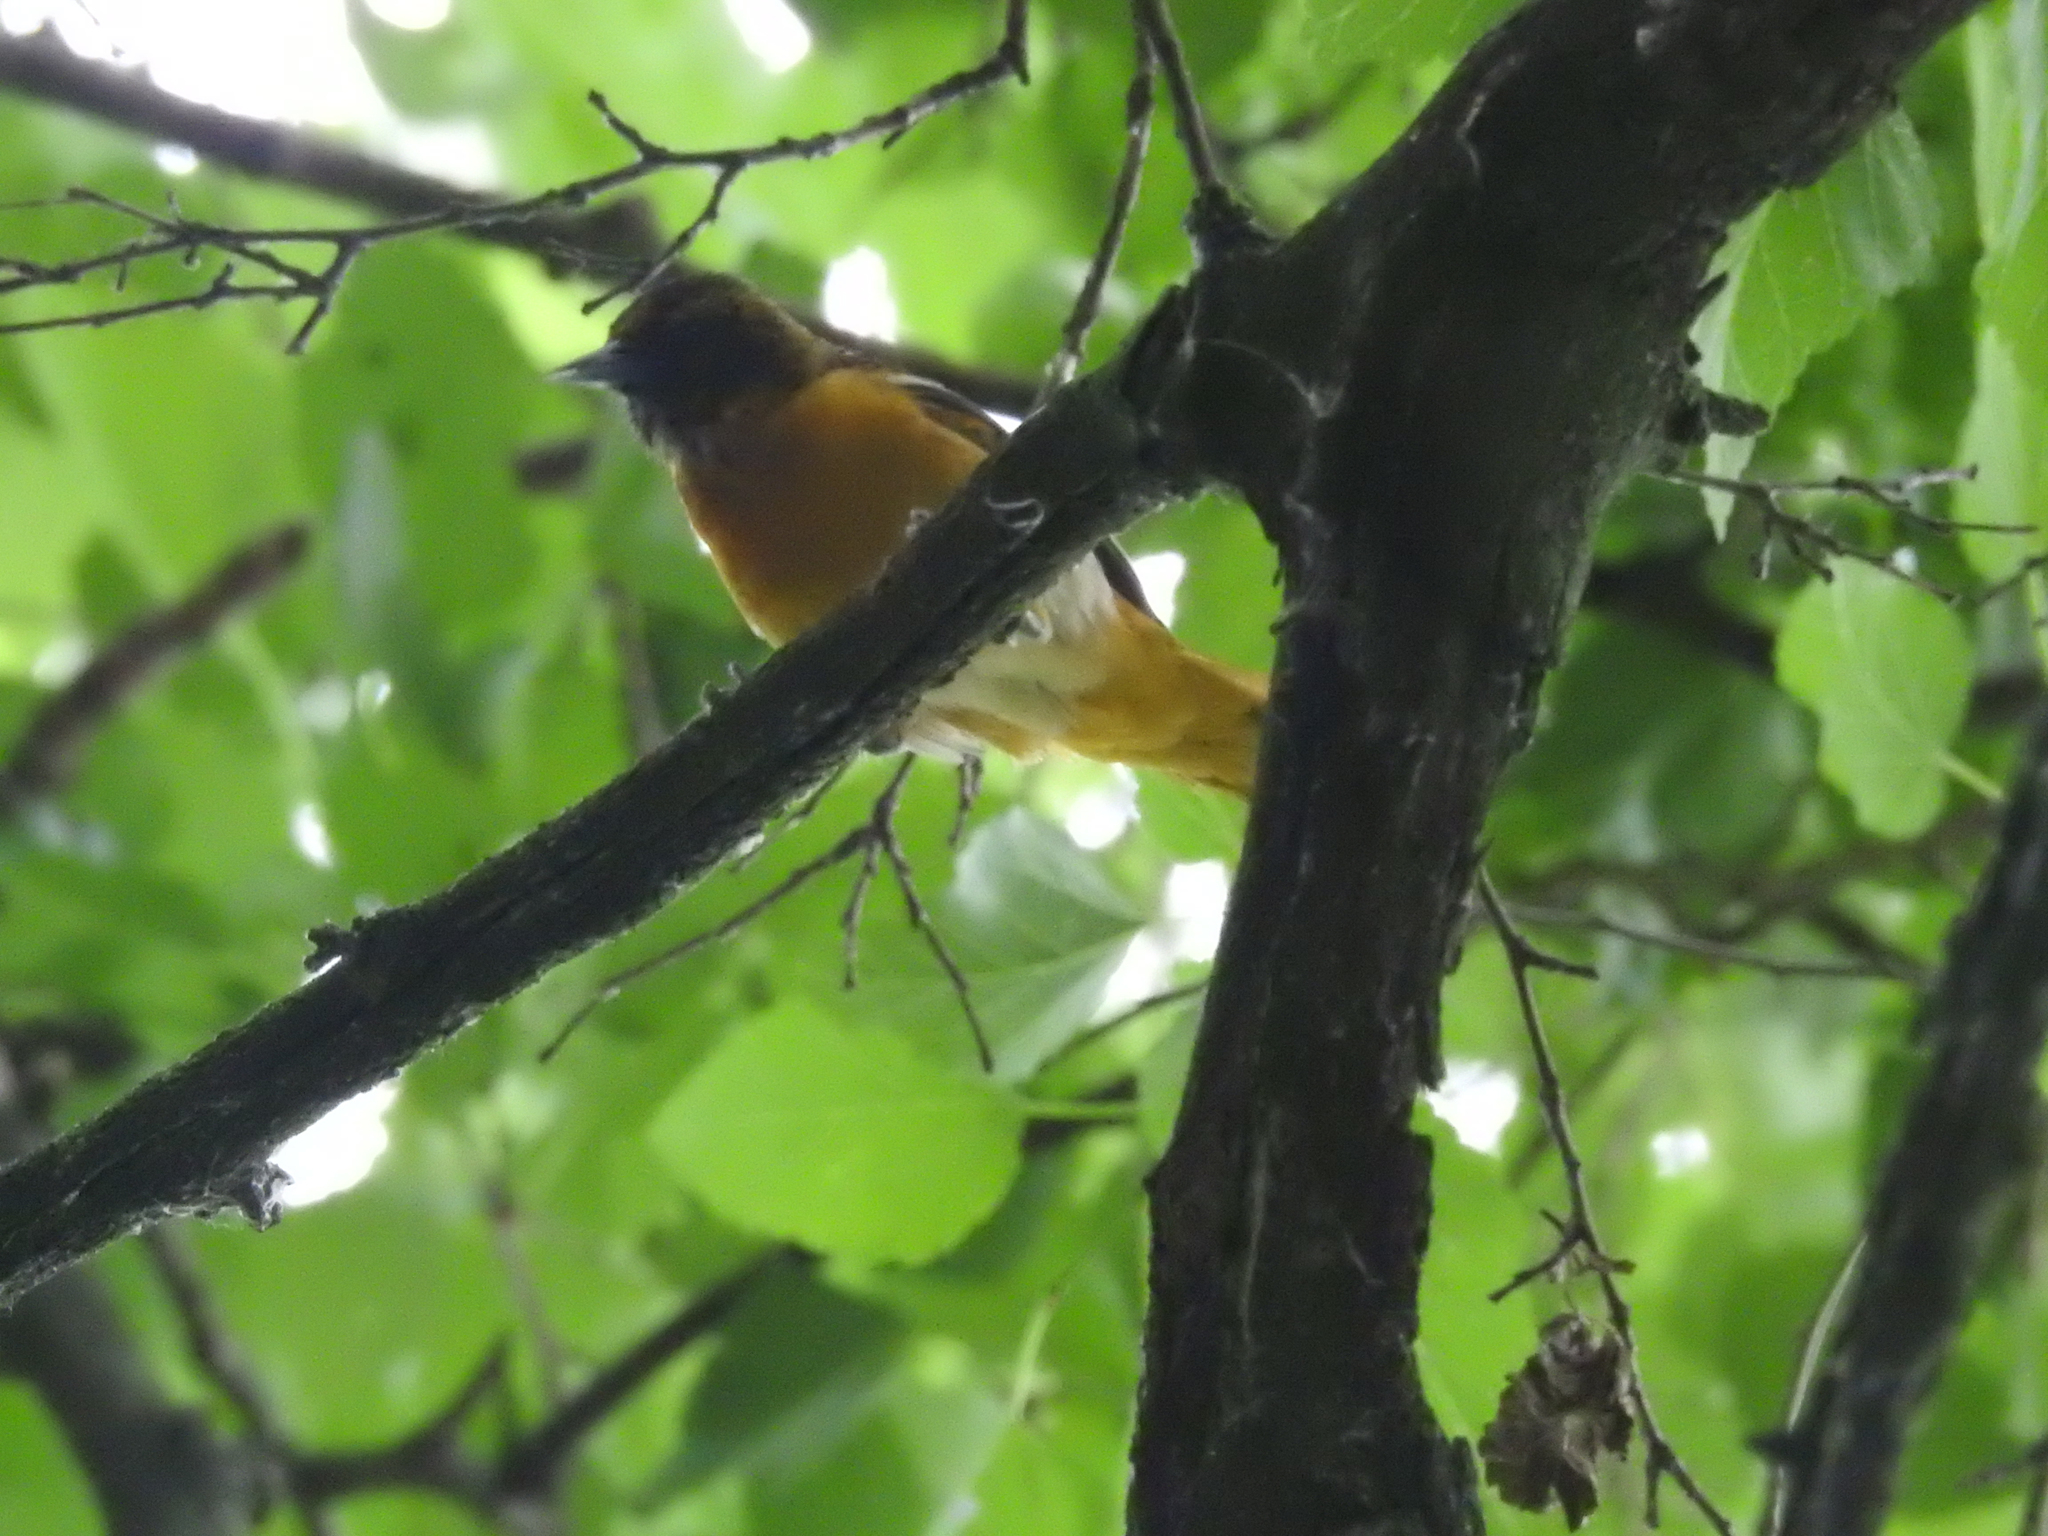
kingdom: Animalia
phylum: Chordata
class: Aves
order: Passeriformes
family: Icteridae
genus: Icterus
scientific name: Icterus galbula
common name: Baltimore oriole
